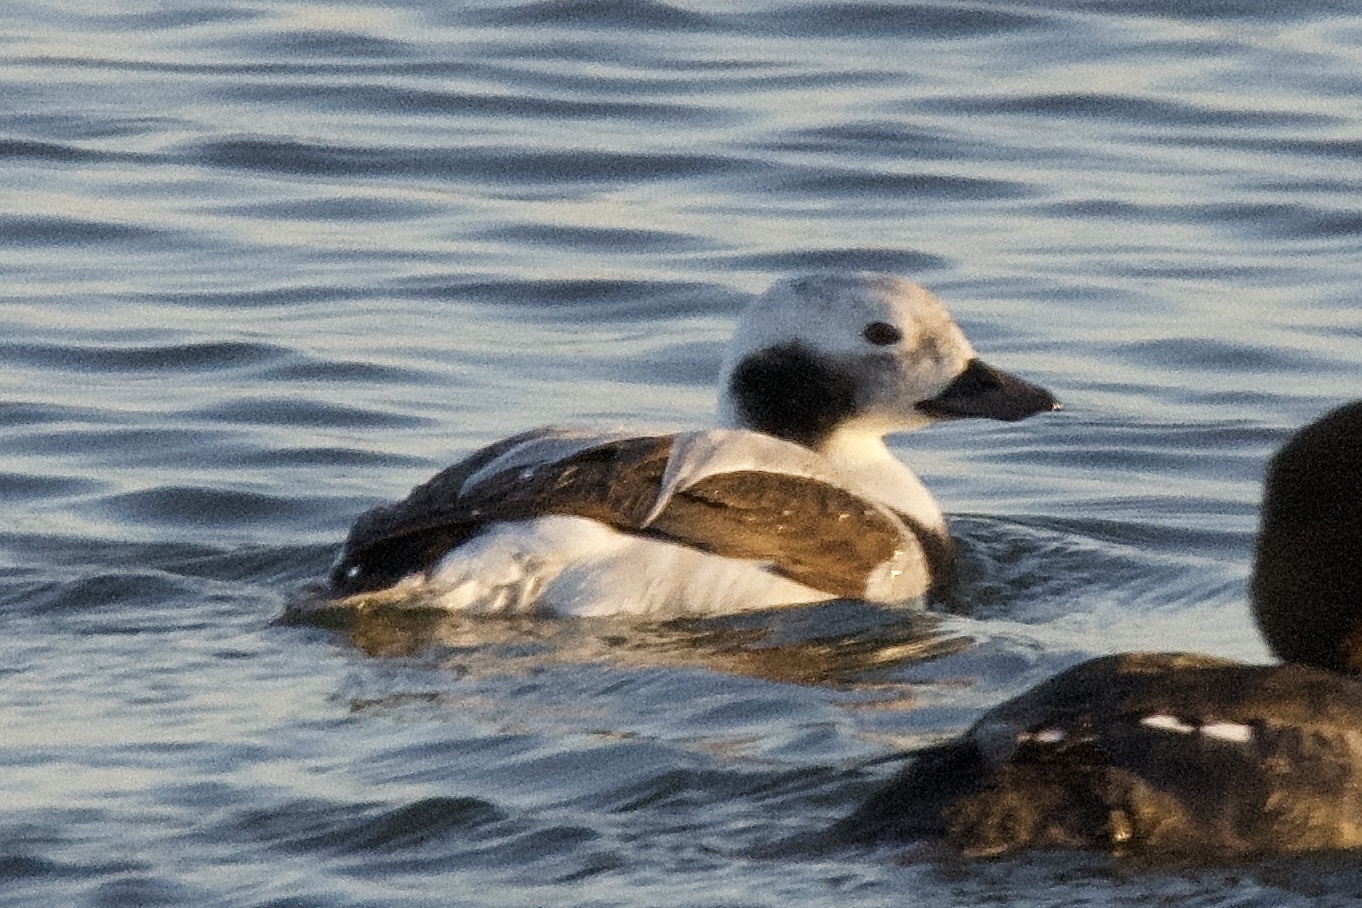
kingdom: Animalia
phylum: Chordata
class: Aves
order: Anseriformes
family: Anatidae
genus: Clangula
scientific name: Clangula hyemalis
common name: Long-tailed duck
